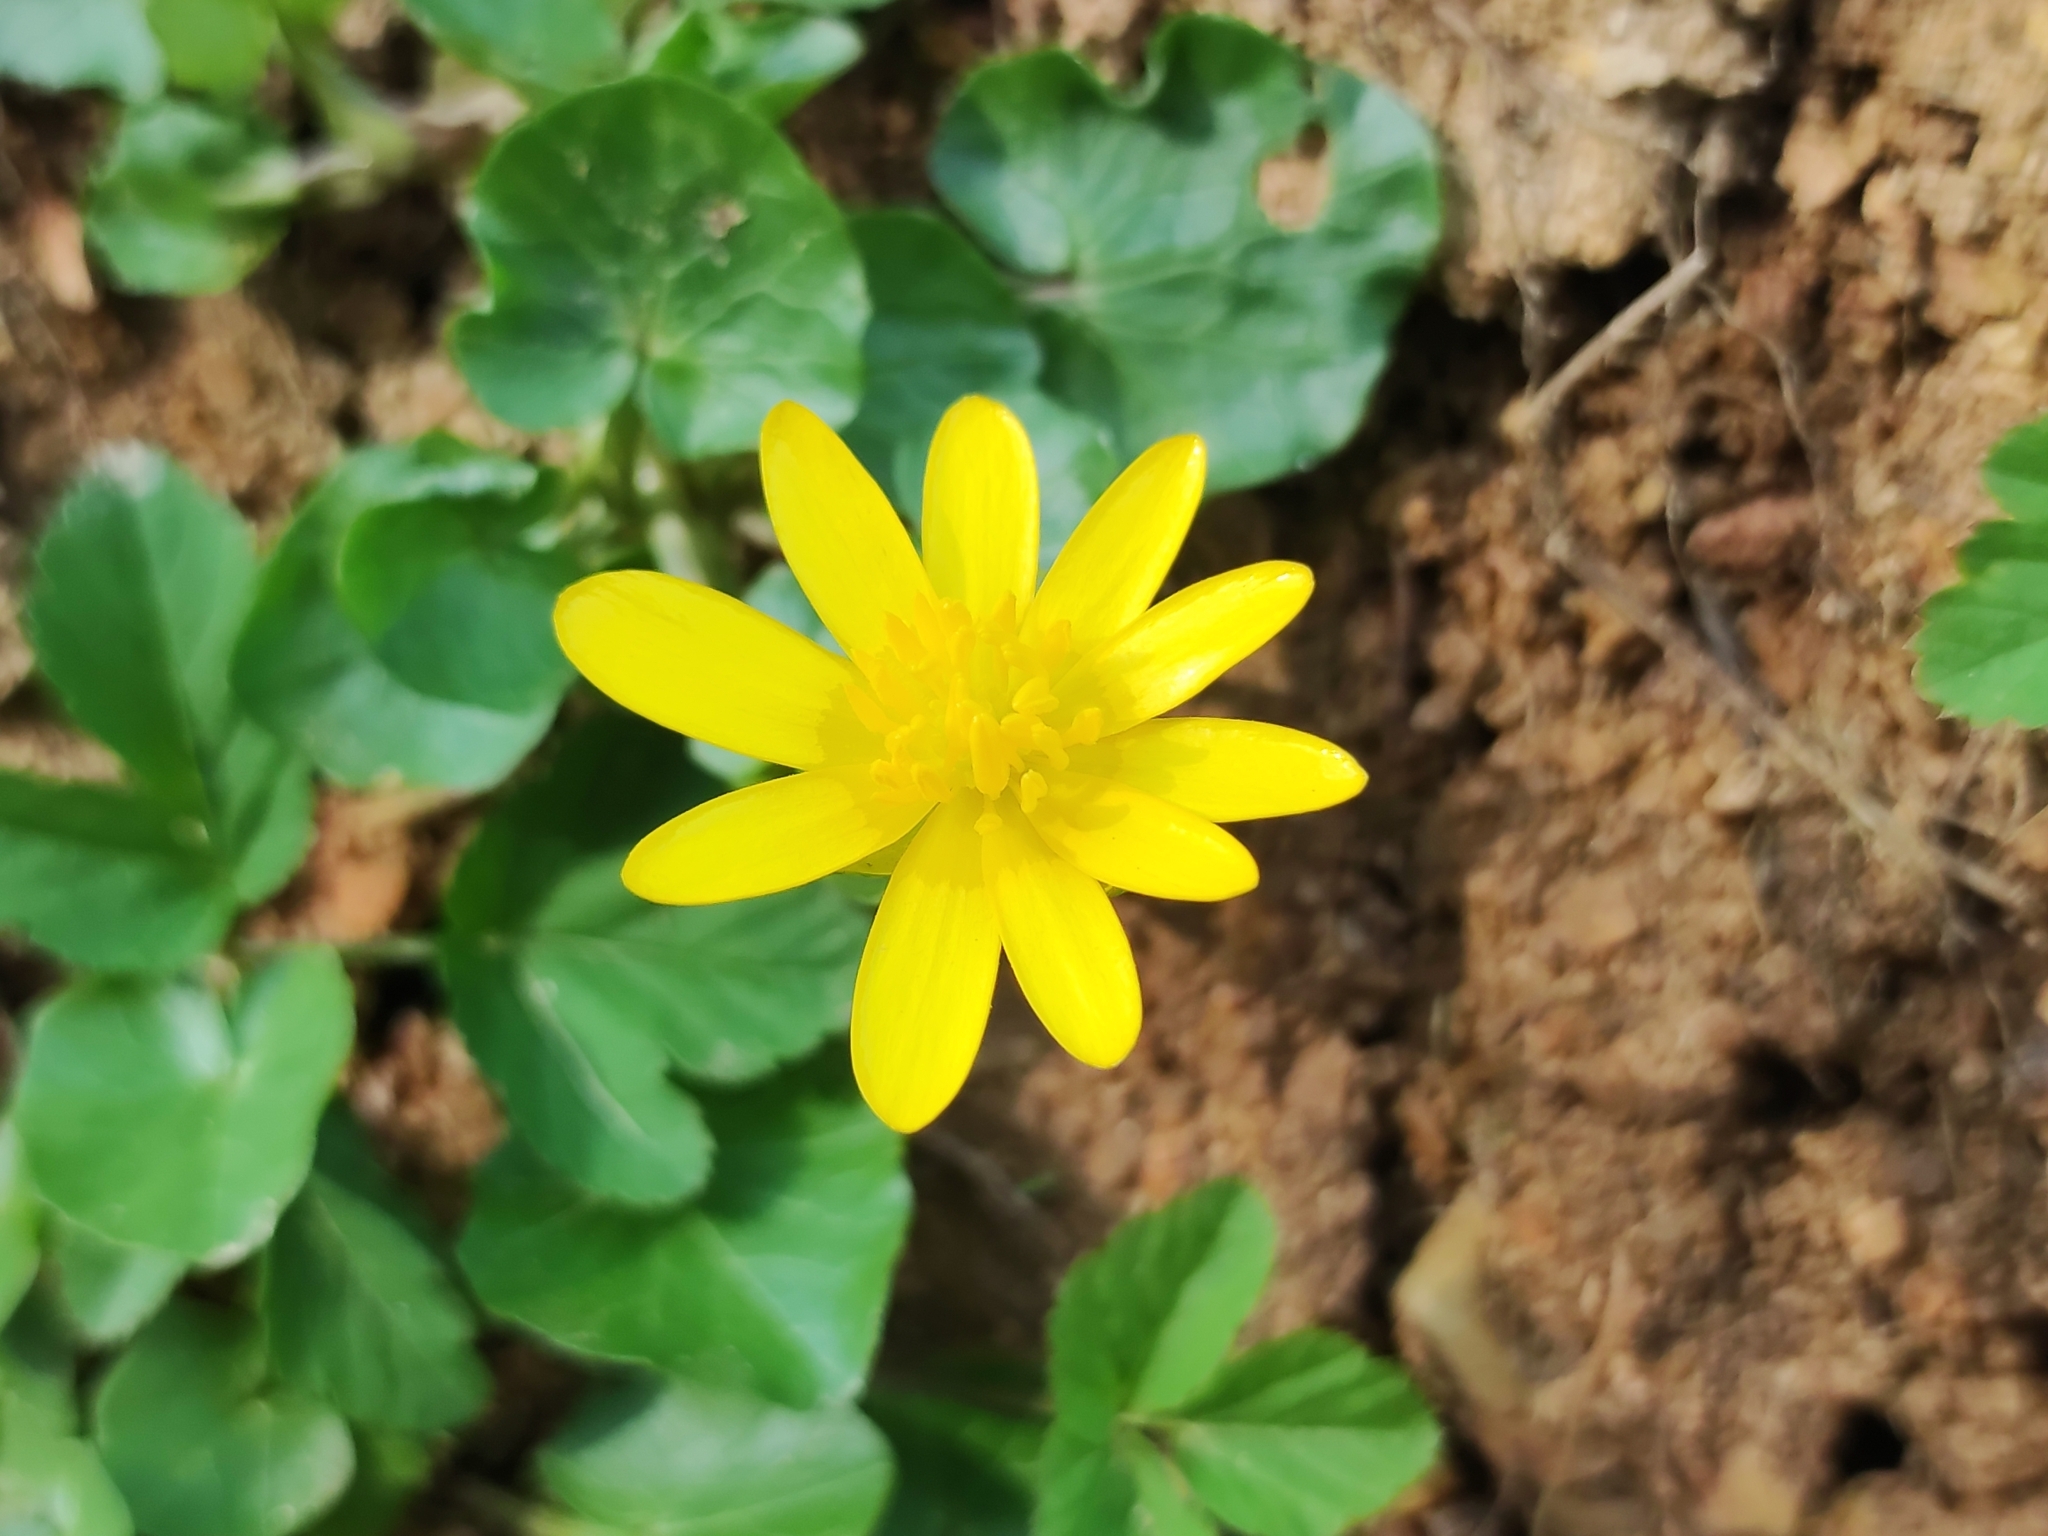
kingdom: Plantae
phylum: Tracheophyta
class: Magnoliopsida
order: Ranunculales
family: Ranunculaceae
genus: Ficaria
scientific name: Ficaria verna
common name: Lesser celandine
